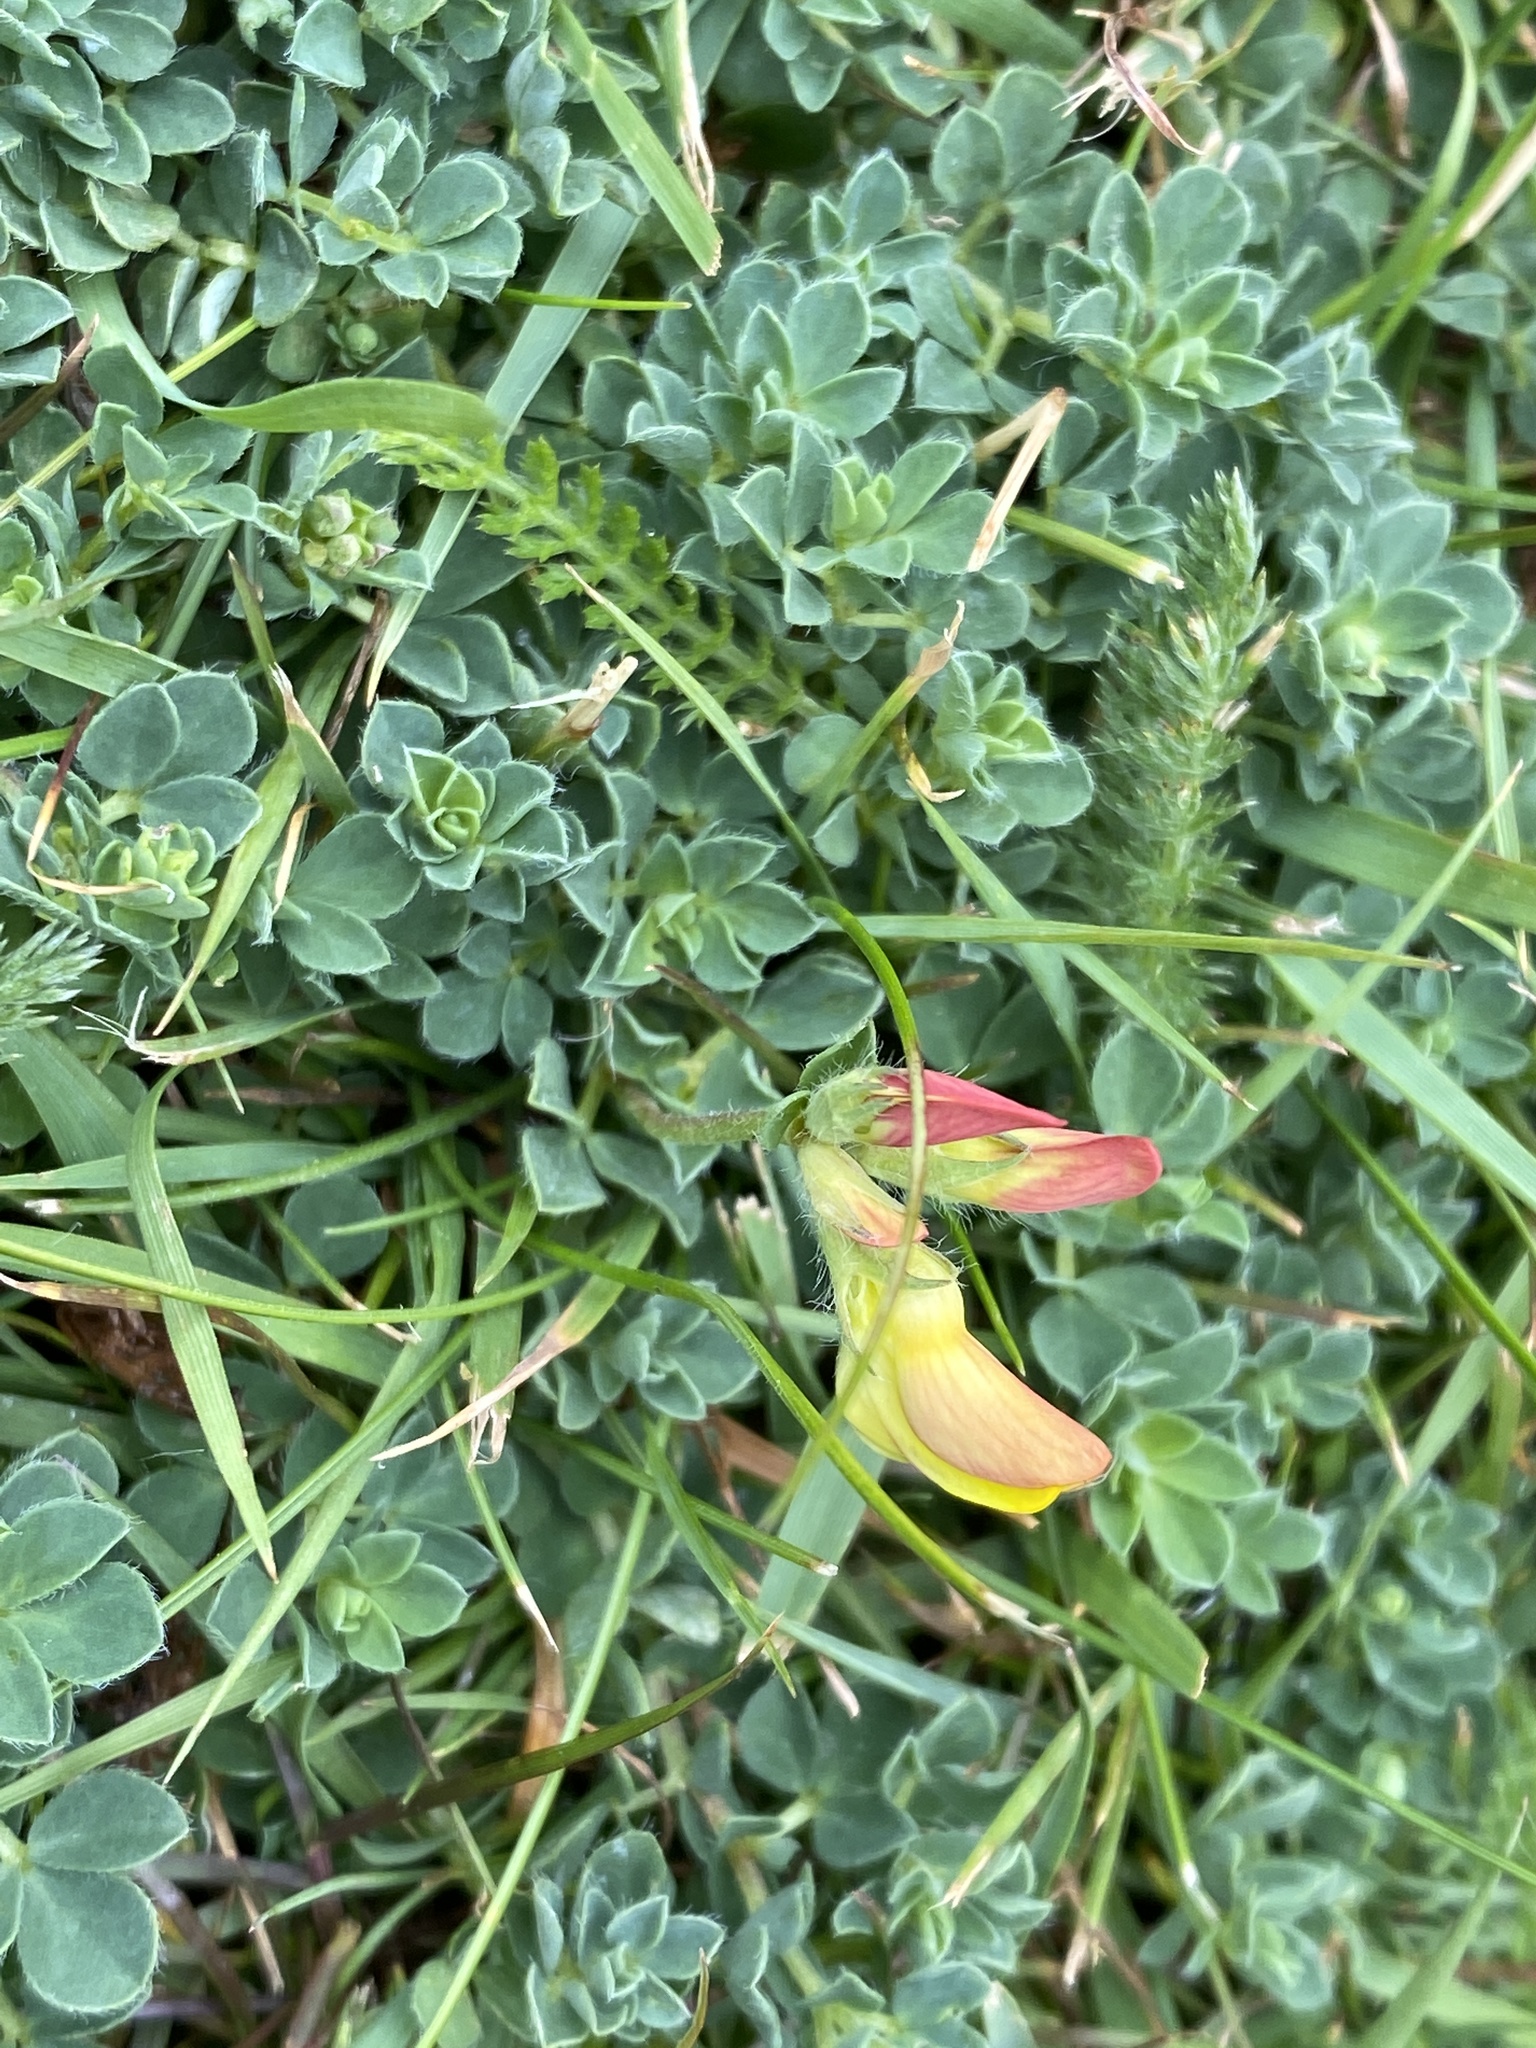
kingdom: Plantae
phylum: Tracheophyta
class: Magnoliopsida
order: Fabales
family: Fabaceae
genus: Lotus
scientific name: Lotus corniculatus
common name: Common bird's-foot-trefoil
